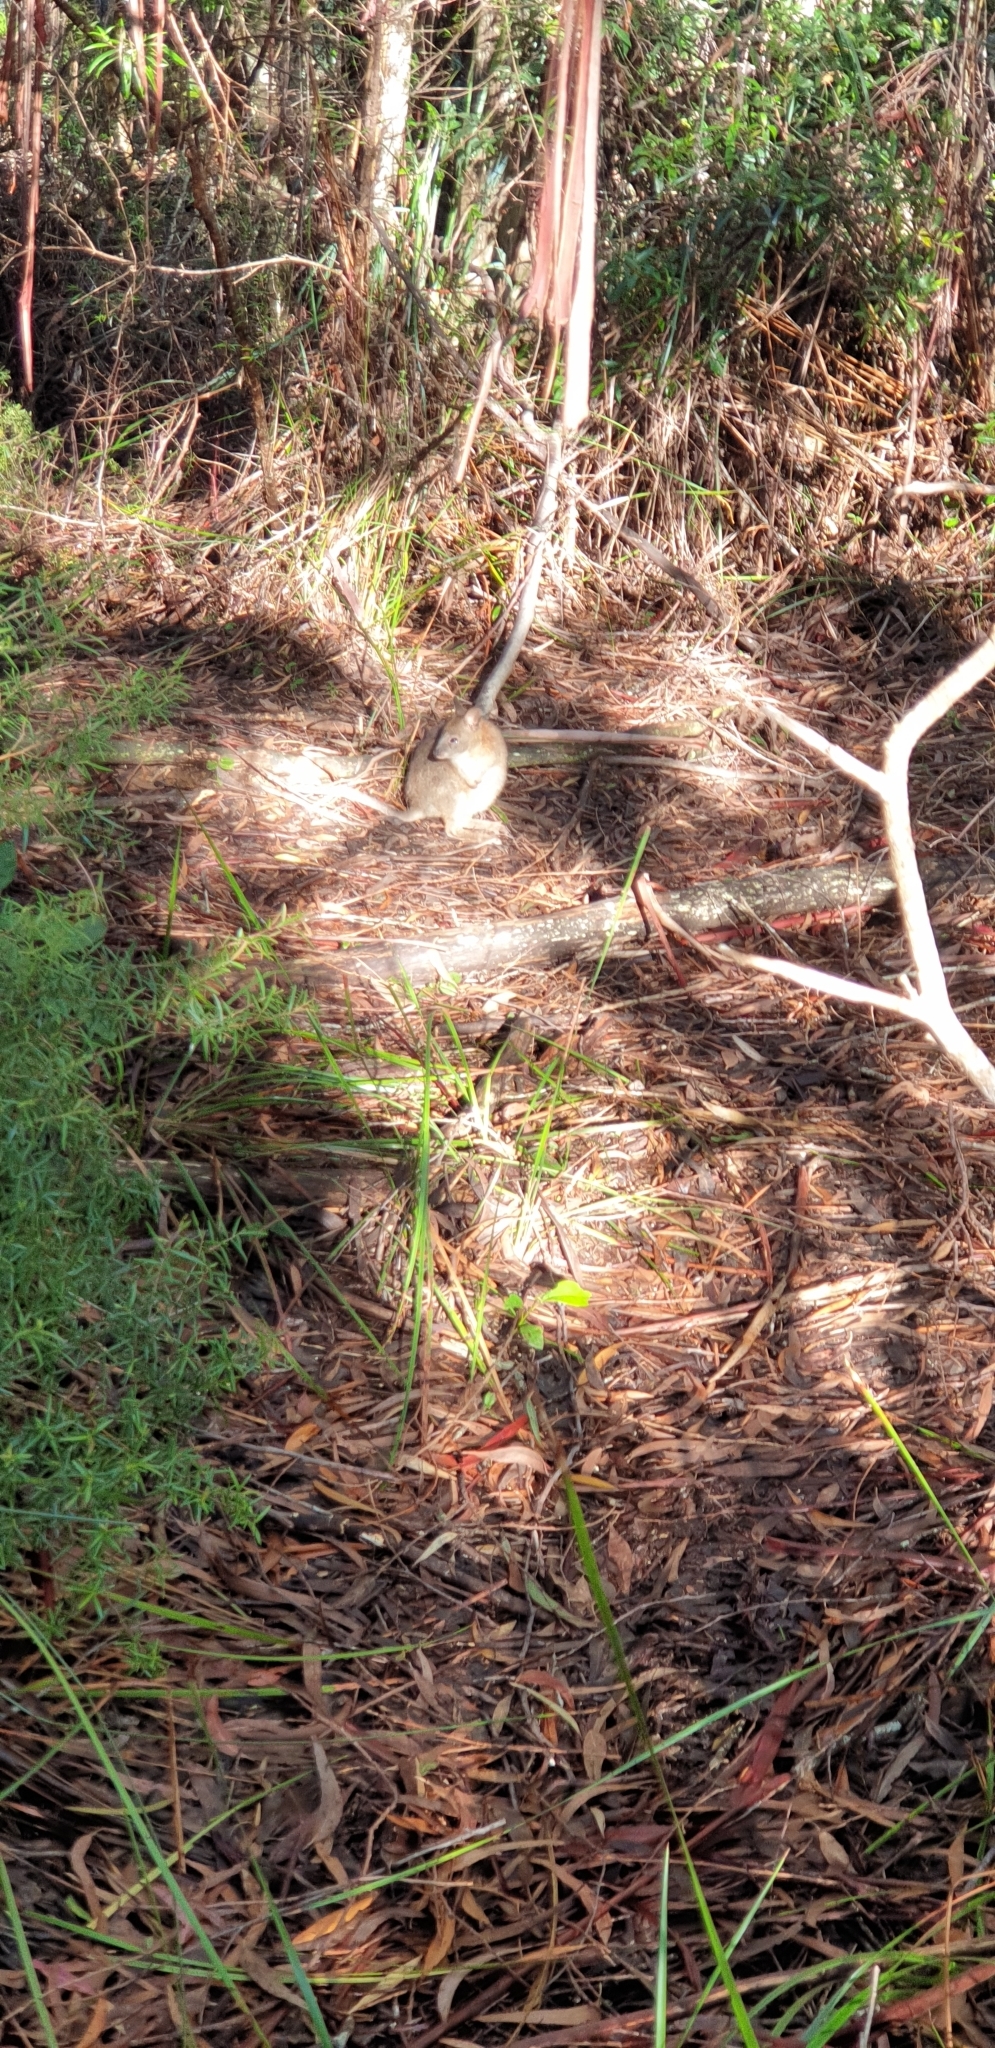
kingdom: Animalia
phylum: Chordata
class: Mammalia
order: Diprotodontia
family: Macropodidae
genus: Thylogale
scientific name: Thylogale thetis
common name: Red-necked pademelon
